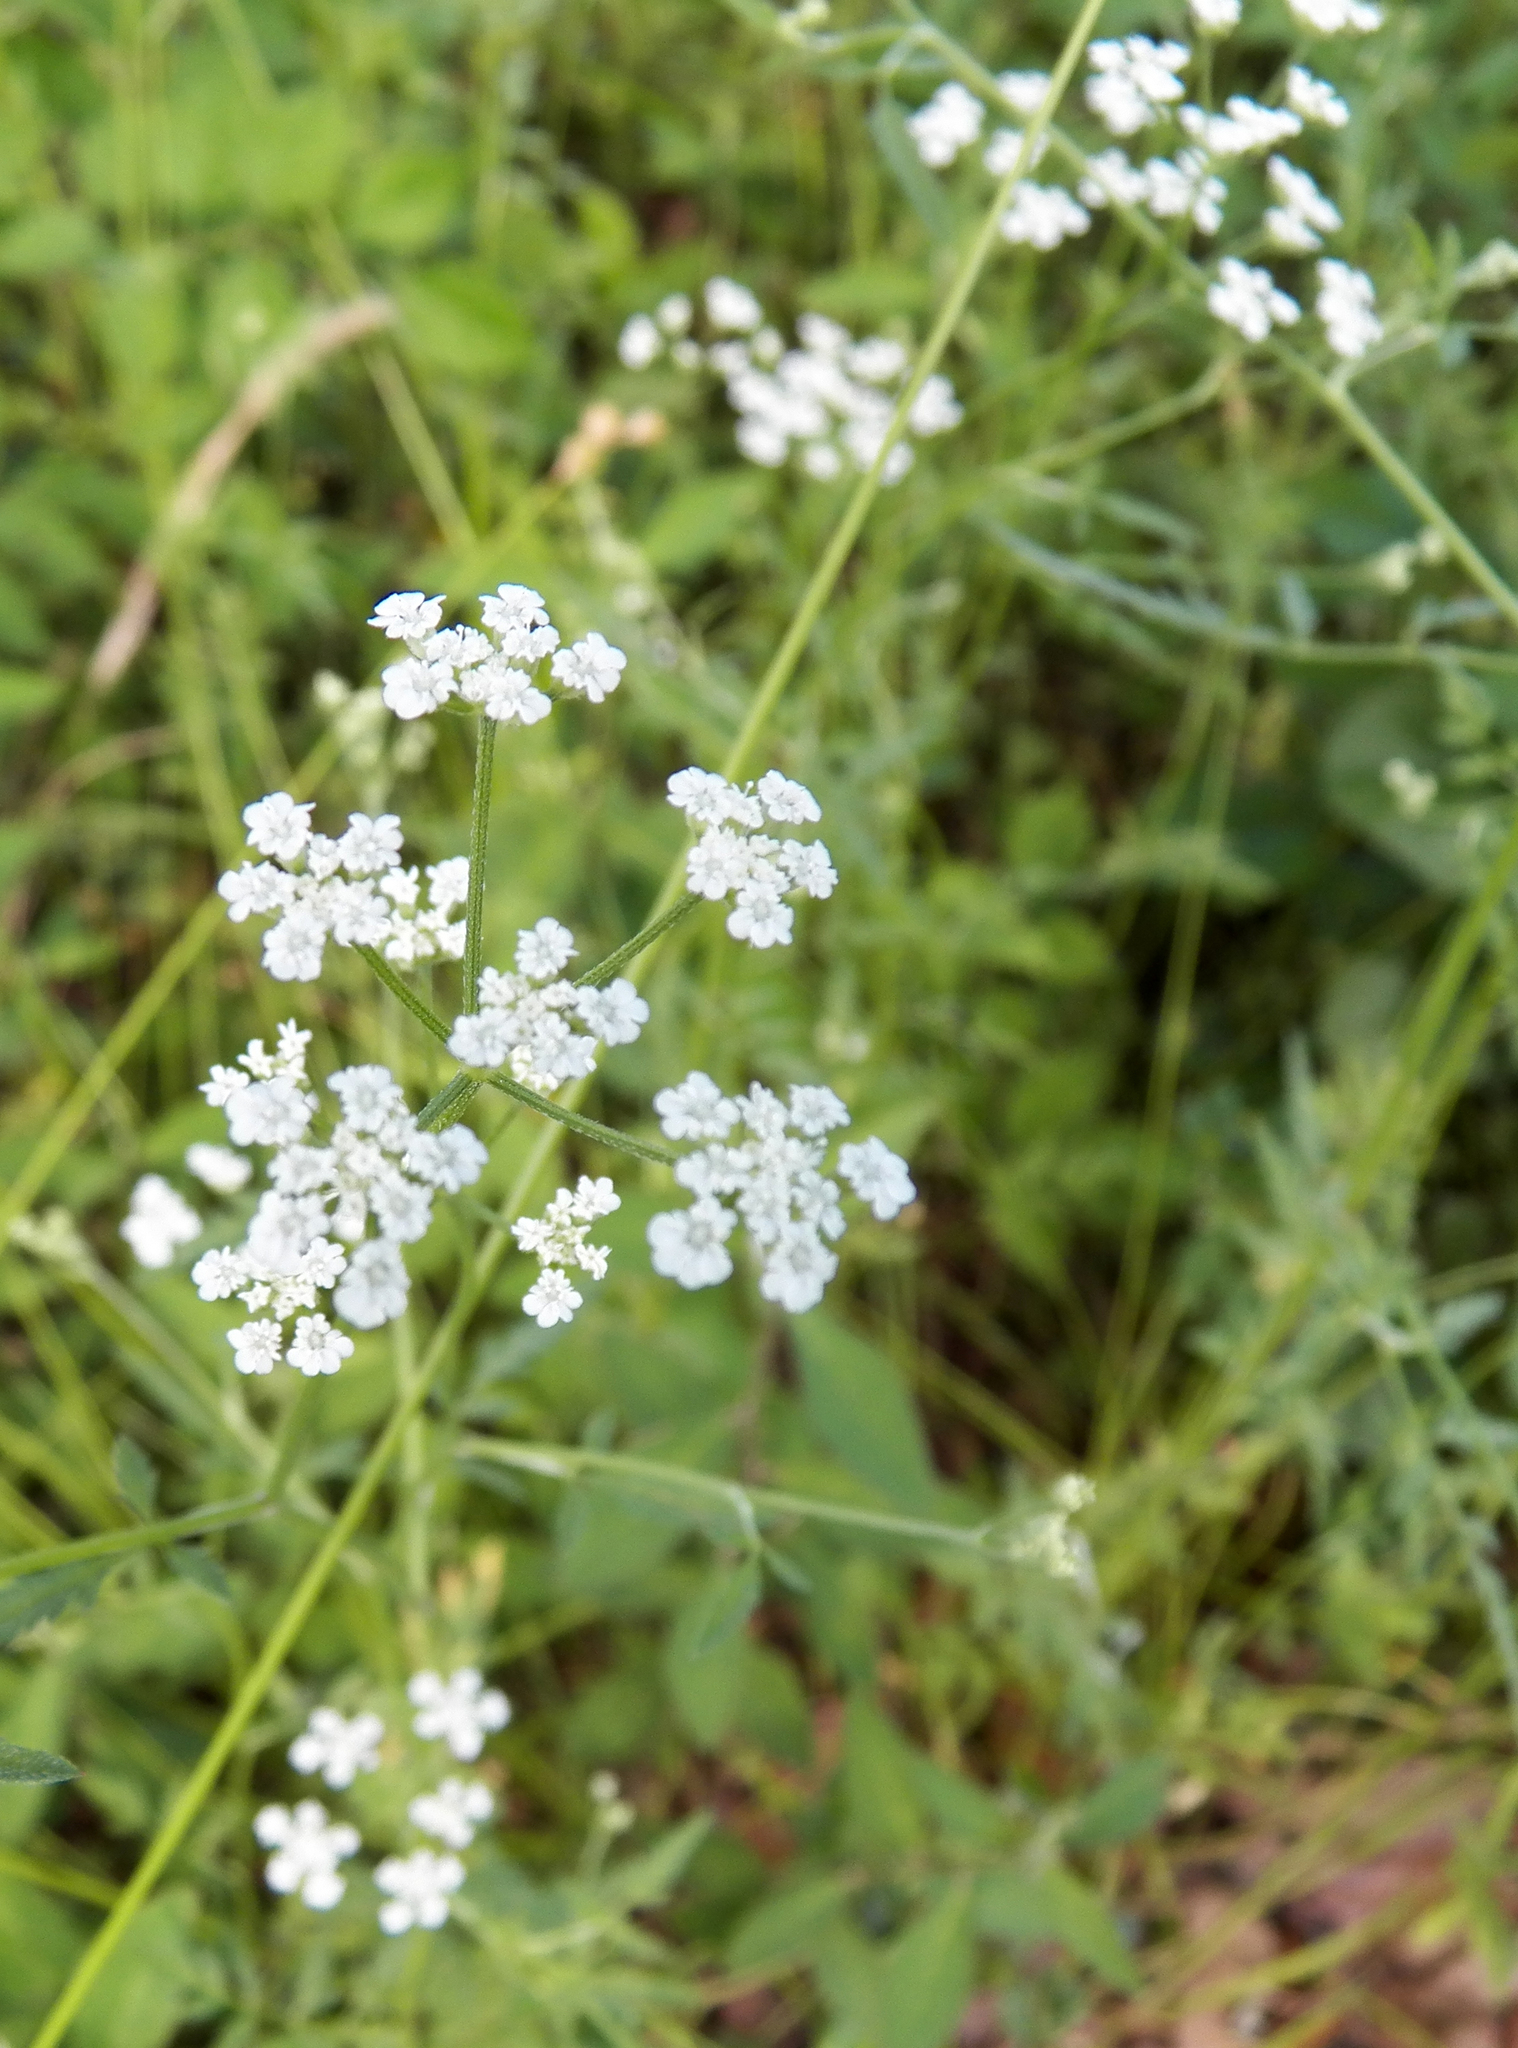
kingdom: Plantae
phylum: Tracheophyta
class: Magnoliopsida
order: Apiales
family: Apiaceae
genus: Torilis
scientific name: Torilis arvensis
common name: Spreading hedge-parsley
